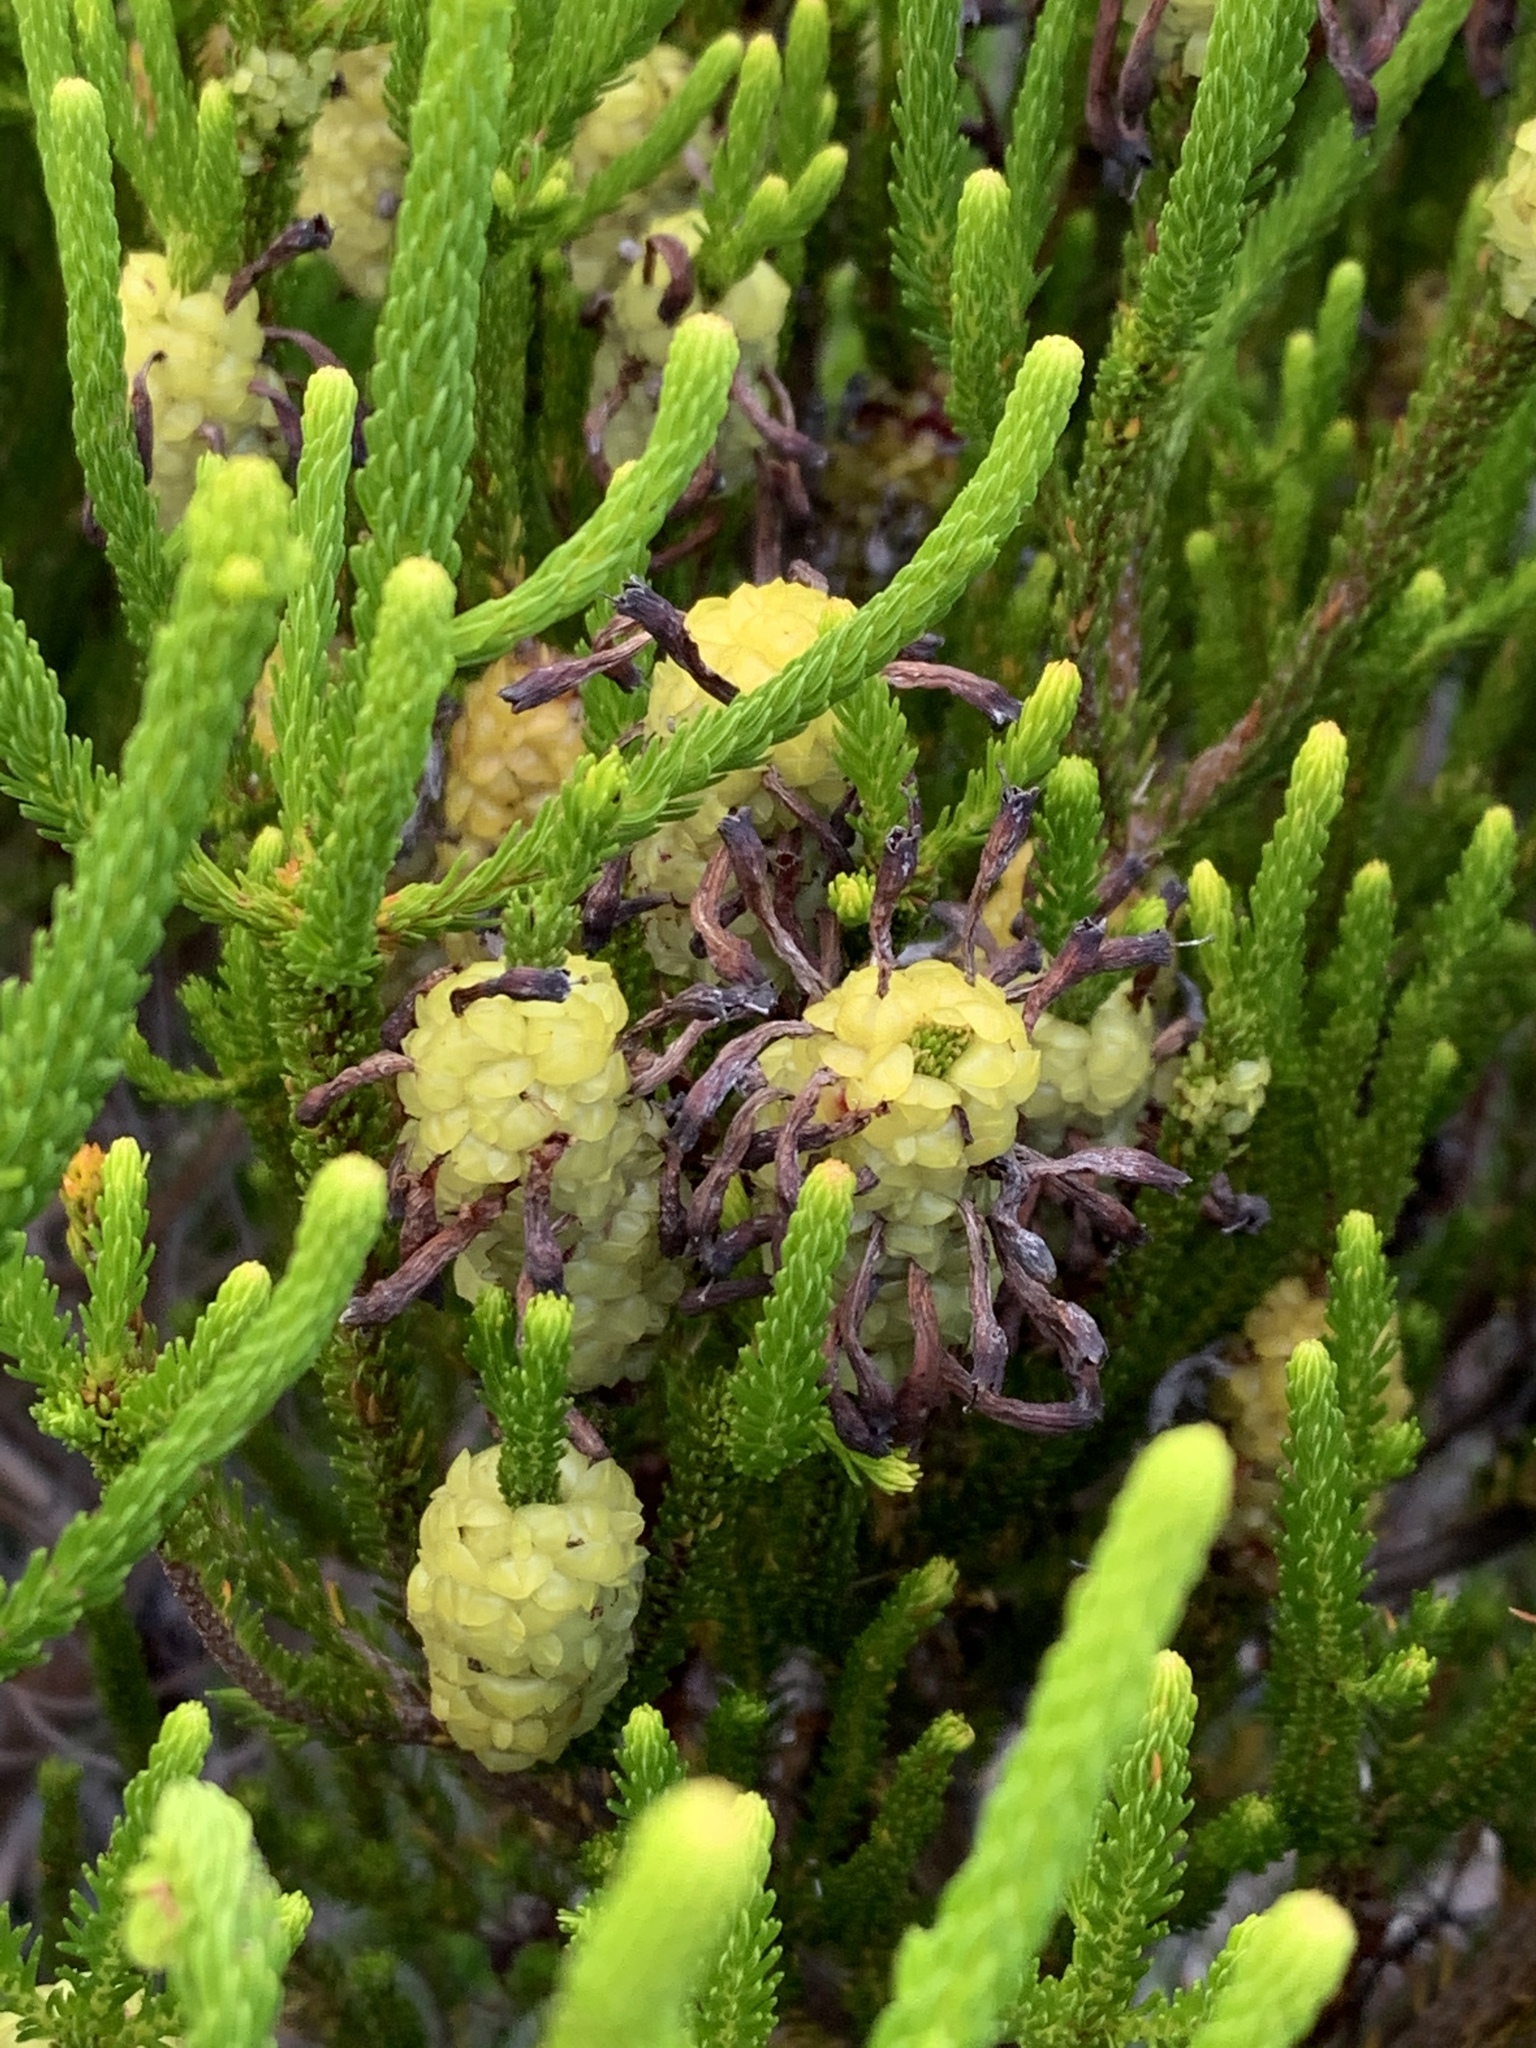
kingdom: Plantae
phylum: Tracheophyta
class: Magnoliopsida
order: Ericales
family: Ericaceae
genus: Erica
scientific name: Erica sessiliflora
